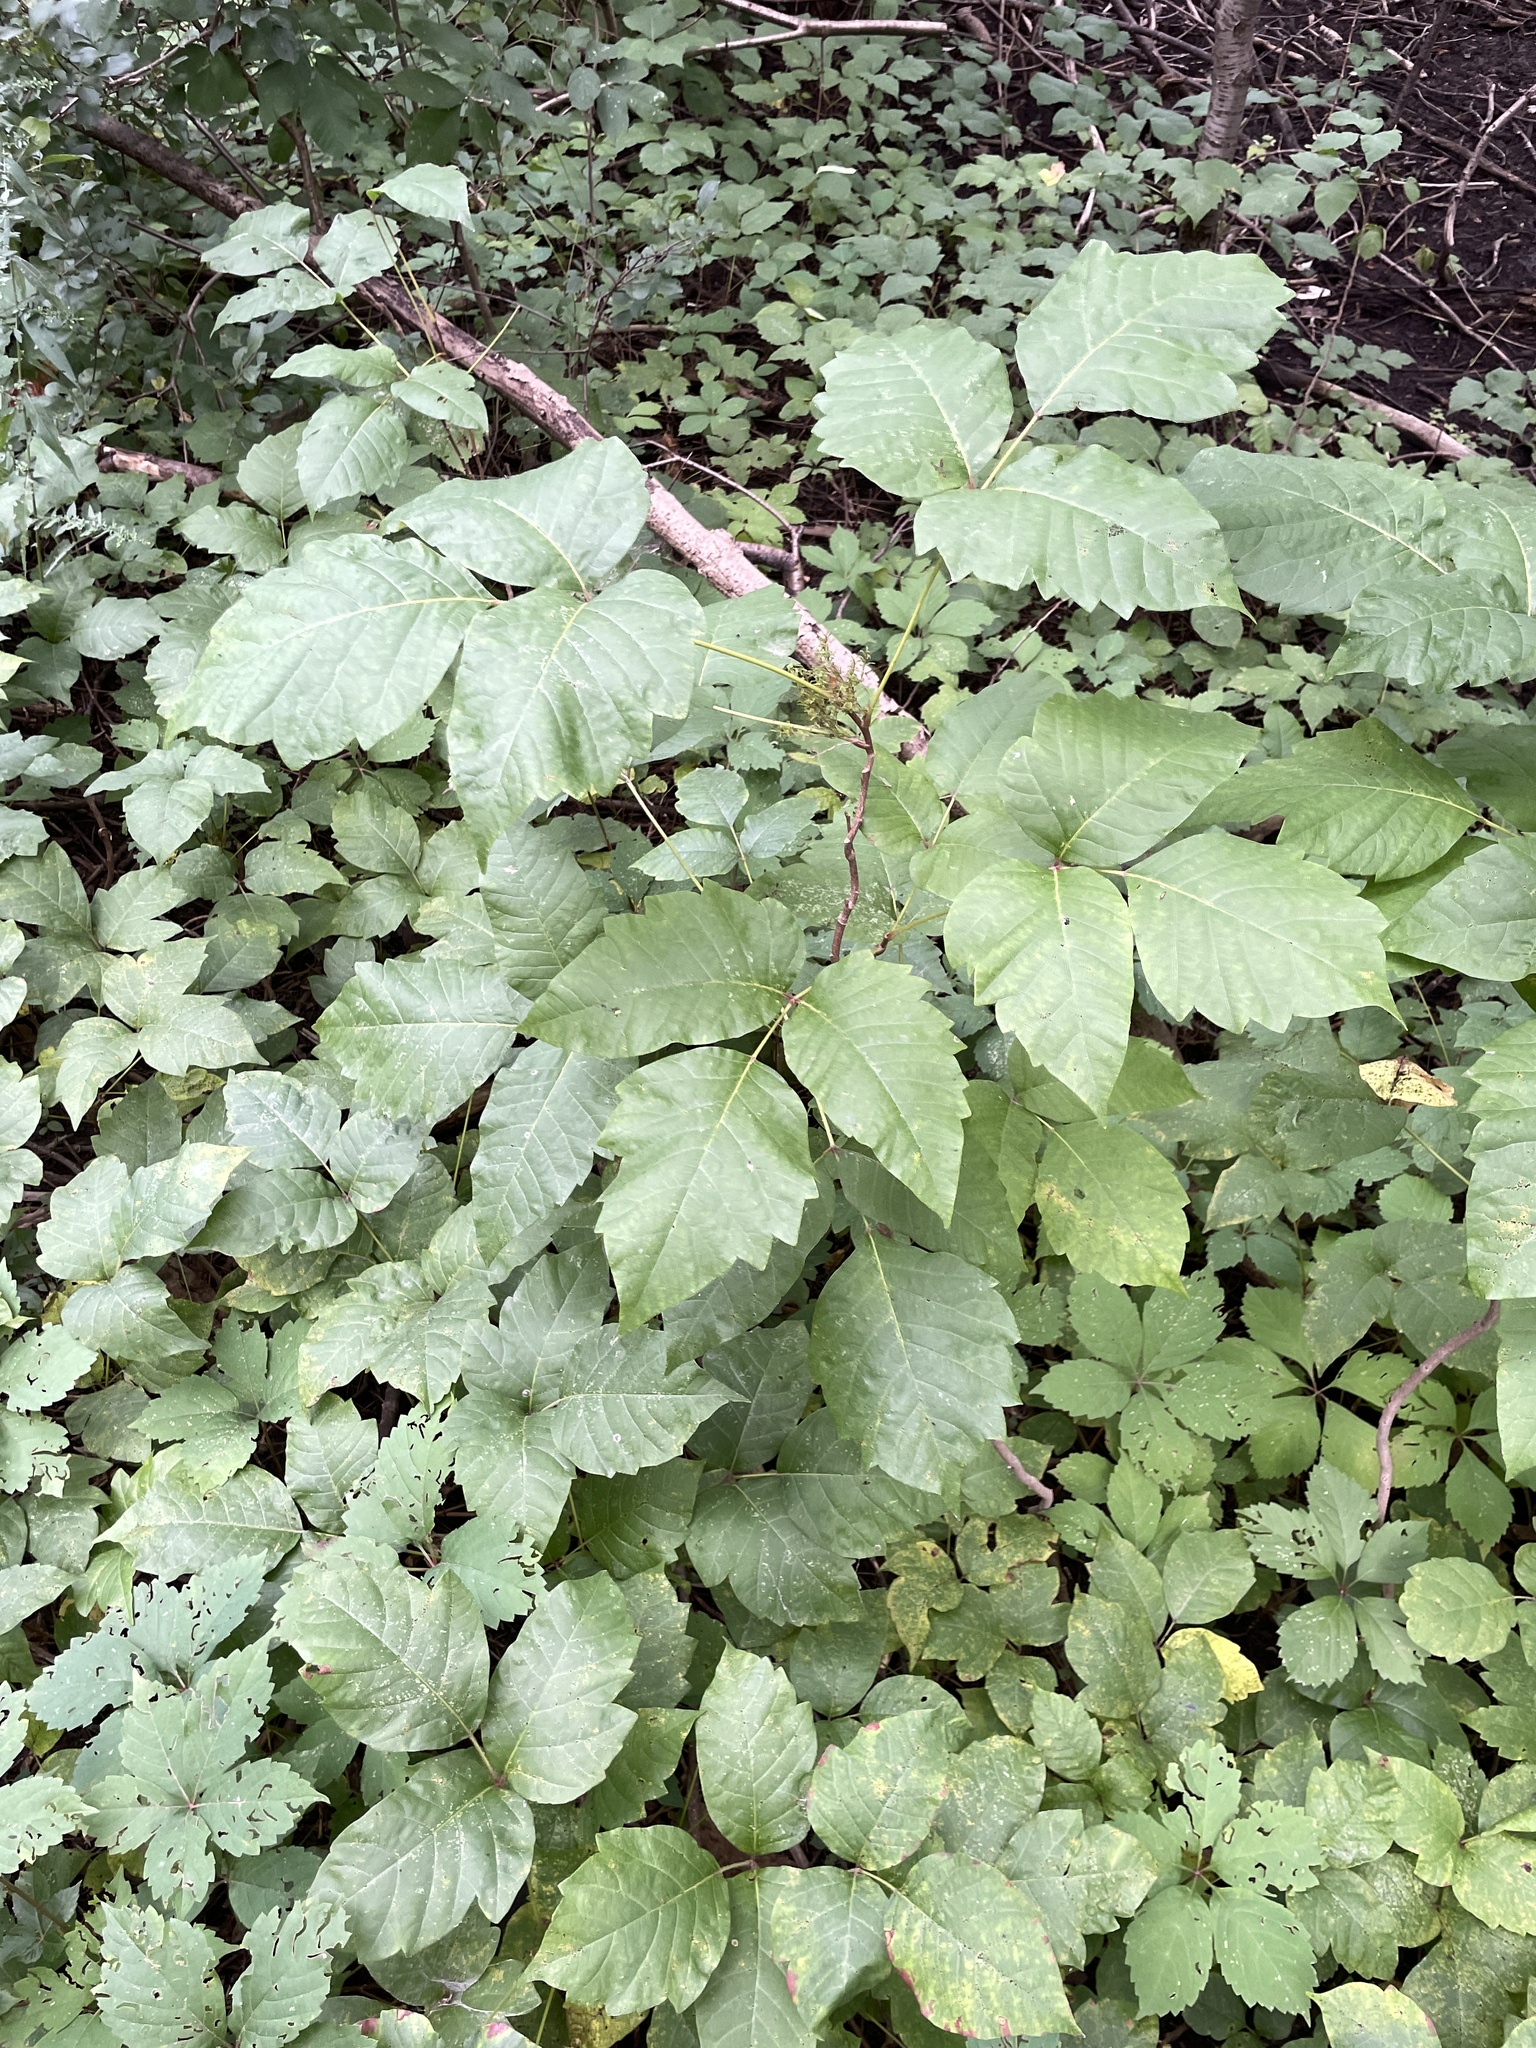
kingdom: Plantae
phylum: Tracheophyta
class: Magnoliopsida
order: Sapindales
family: Anacardiaceae
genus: Toxicodendron
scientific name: Toxicodendron radicans
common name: Poison ivy
